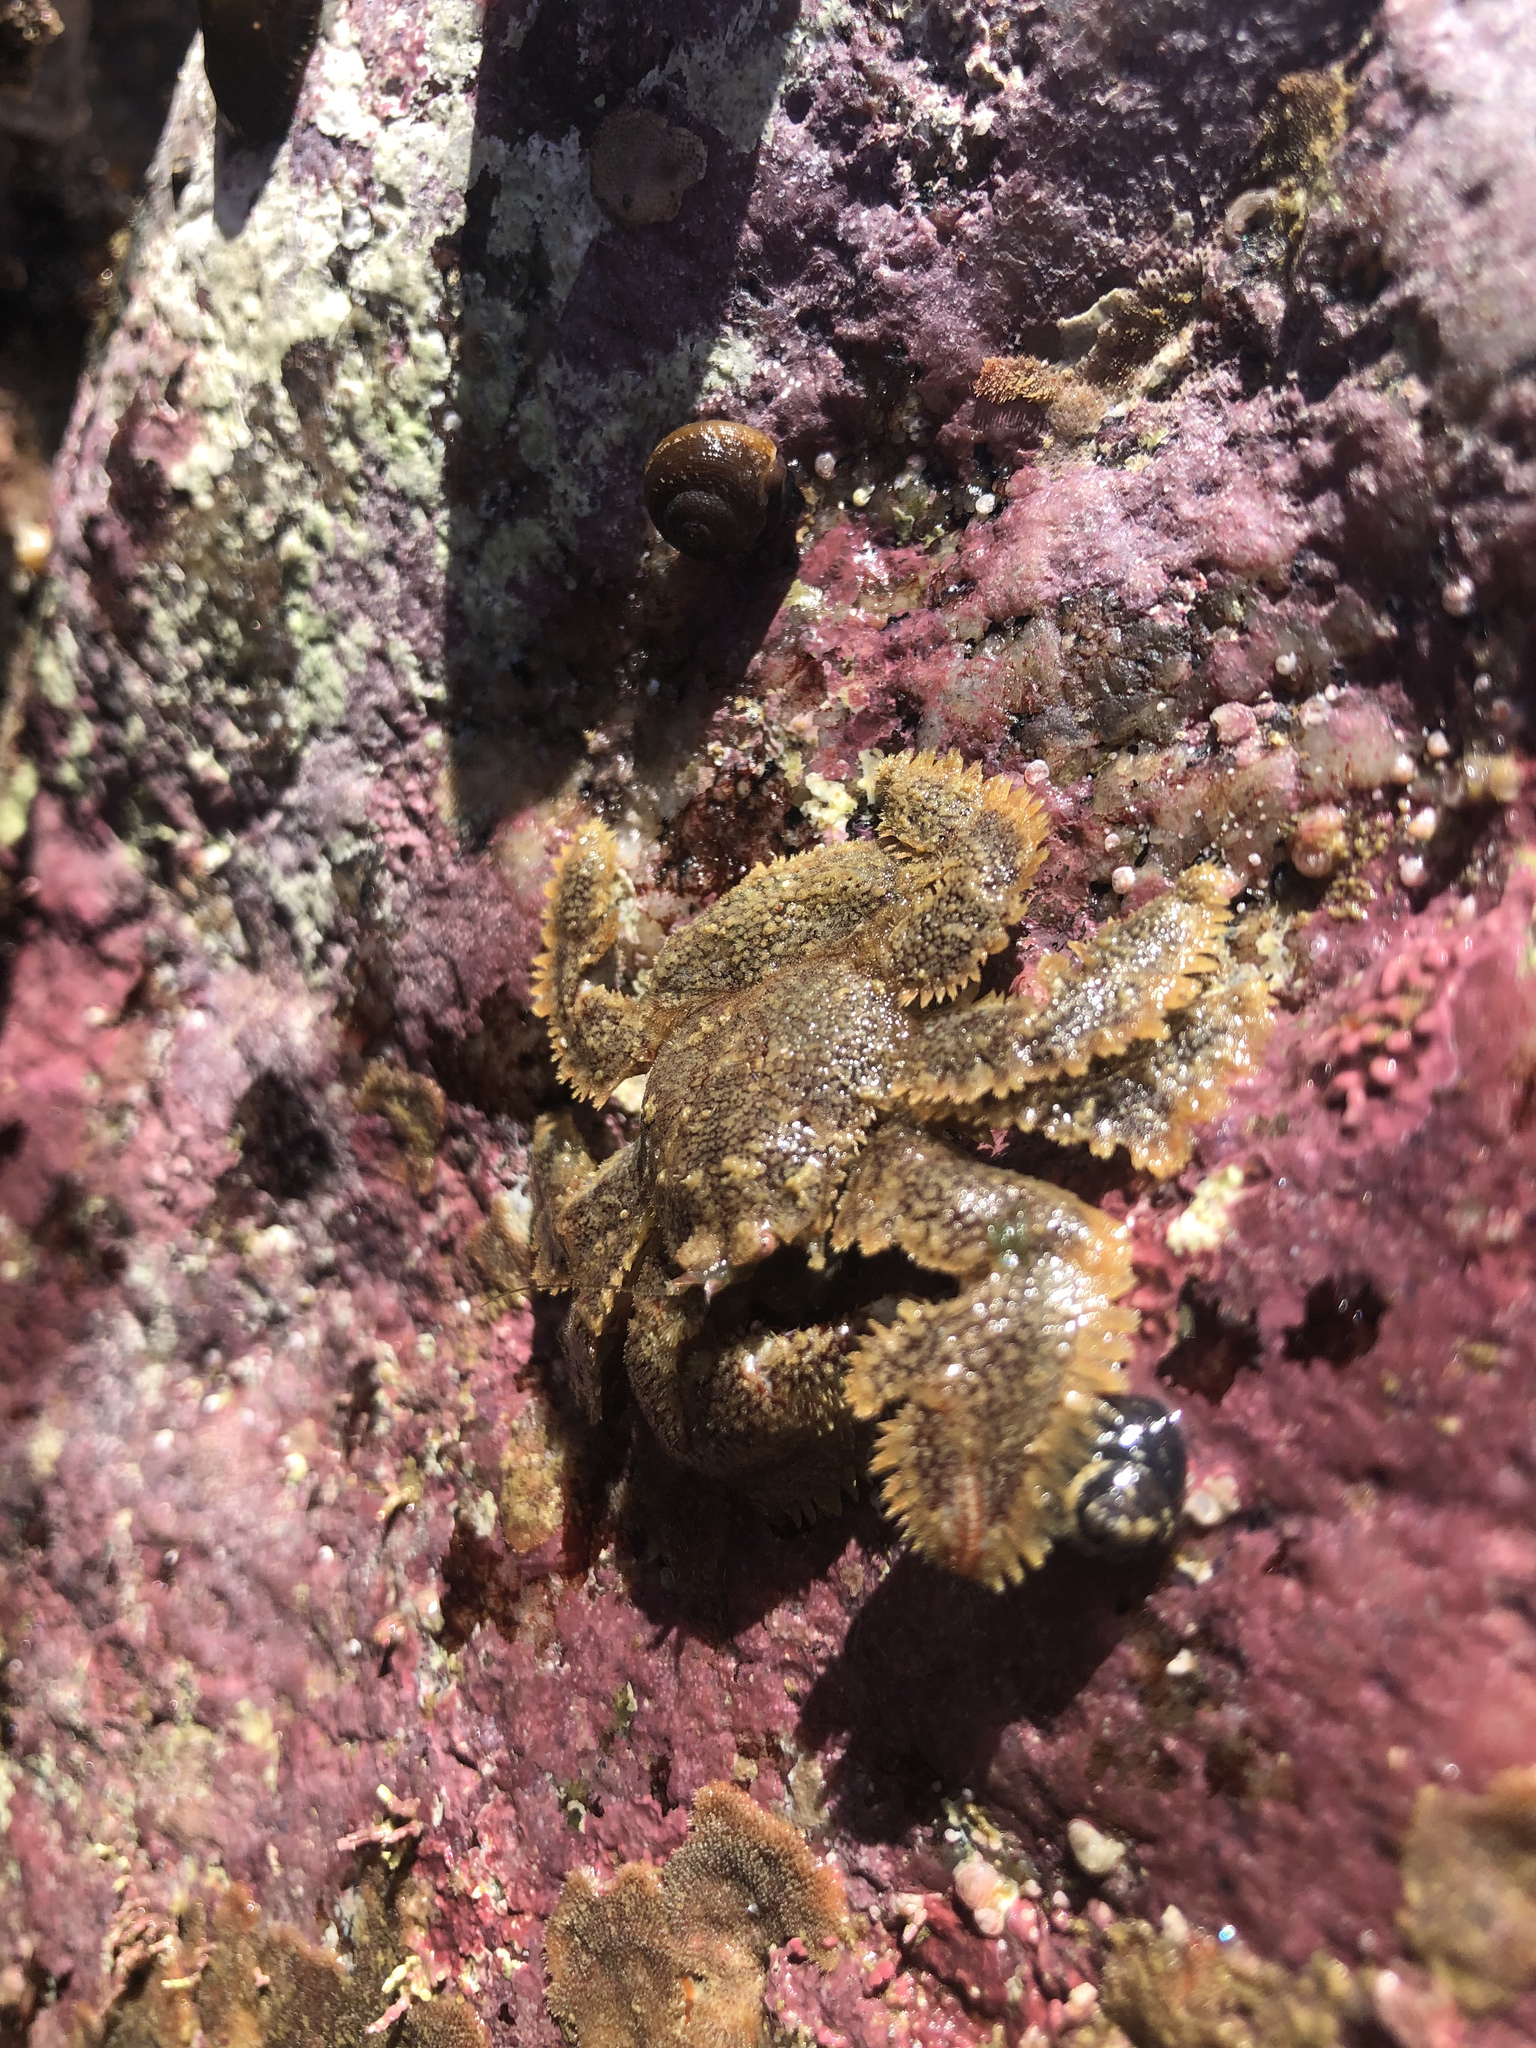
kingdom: Animalia
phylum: Arthropoda
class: Malacostraca
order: Decapoda
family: Hapalogastridae
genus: Hapalogaster
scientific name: Hapalogaster cavicauda
